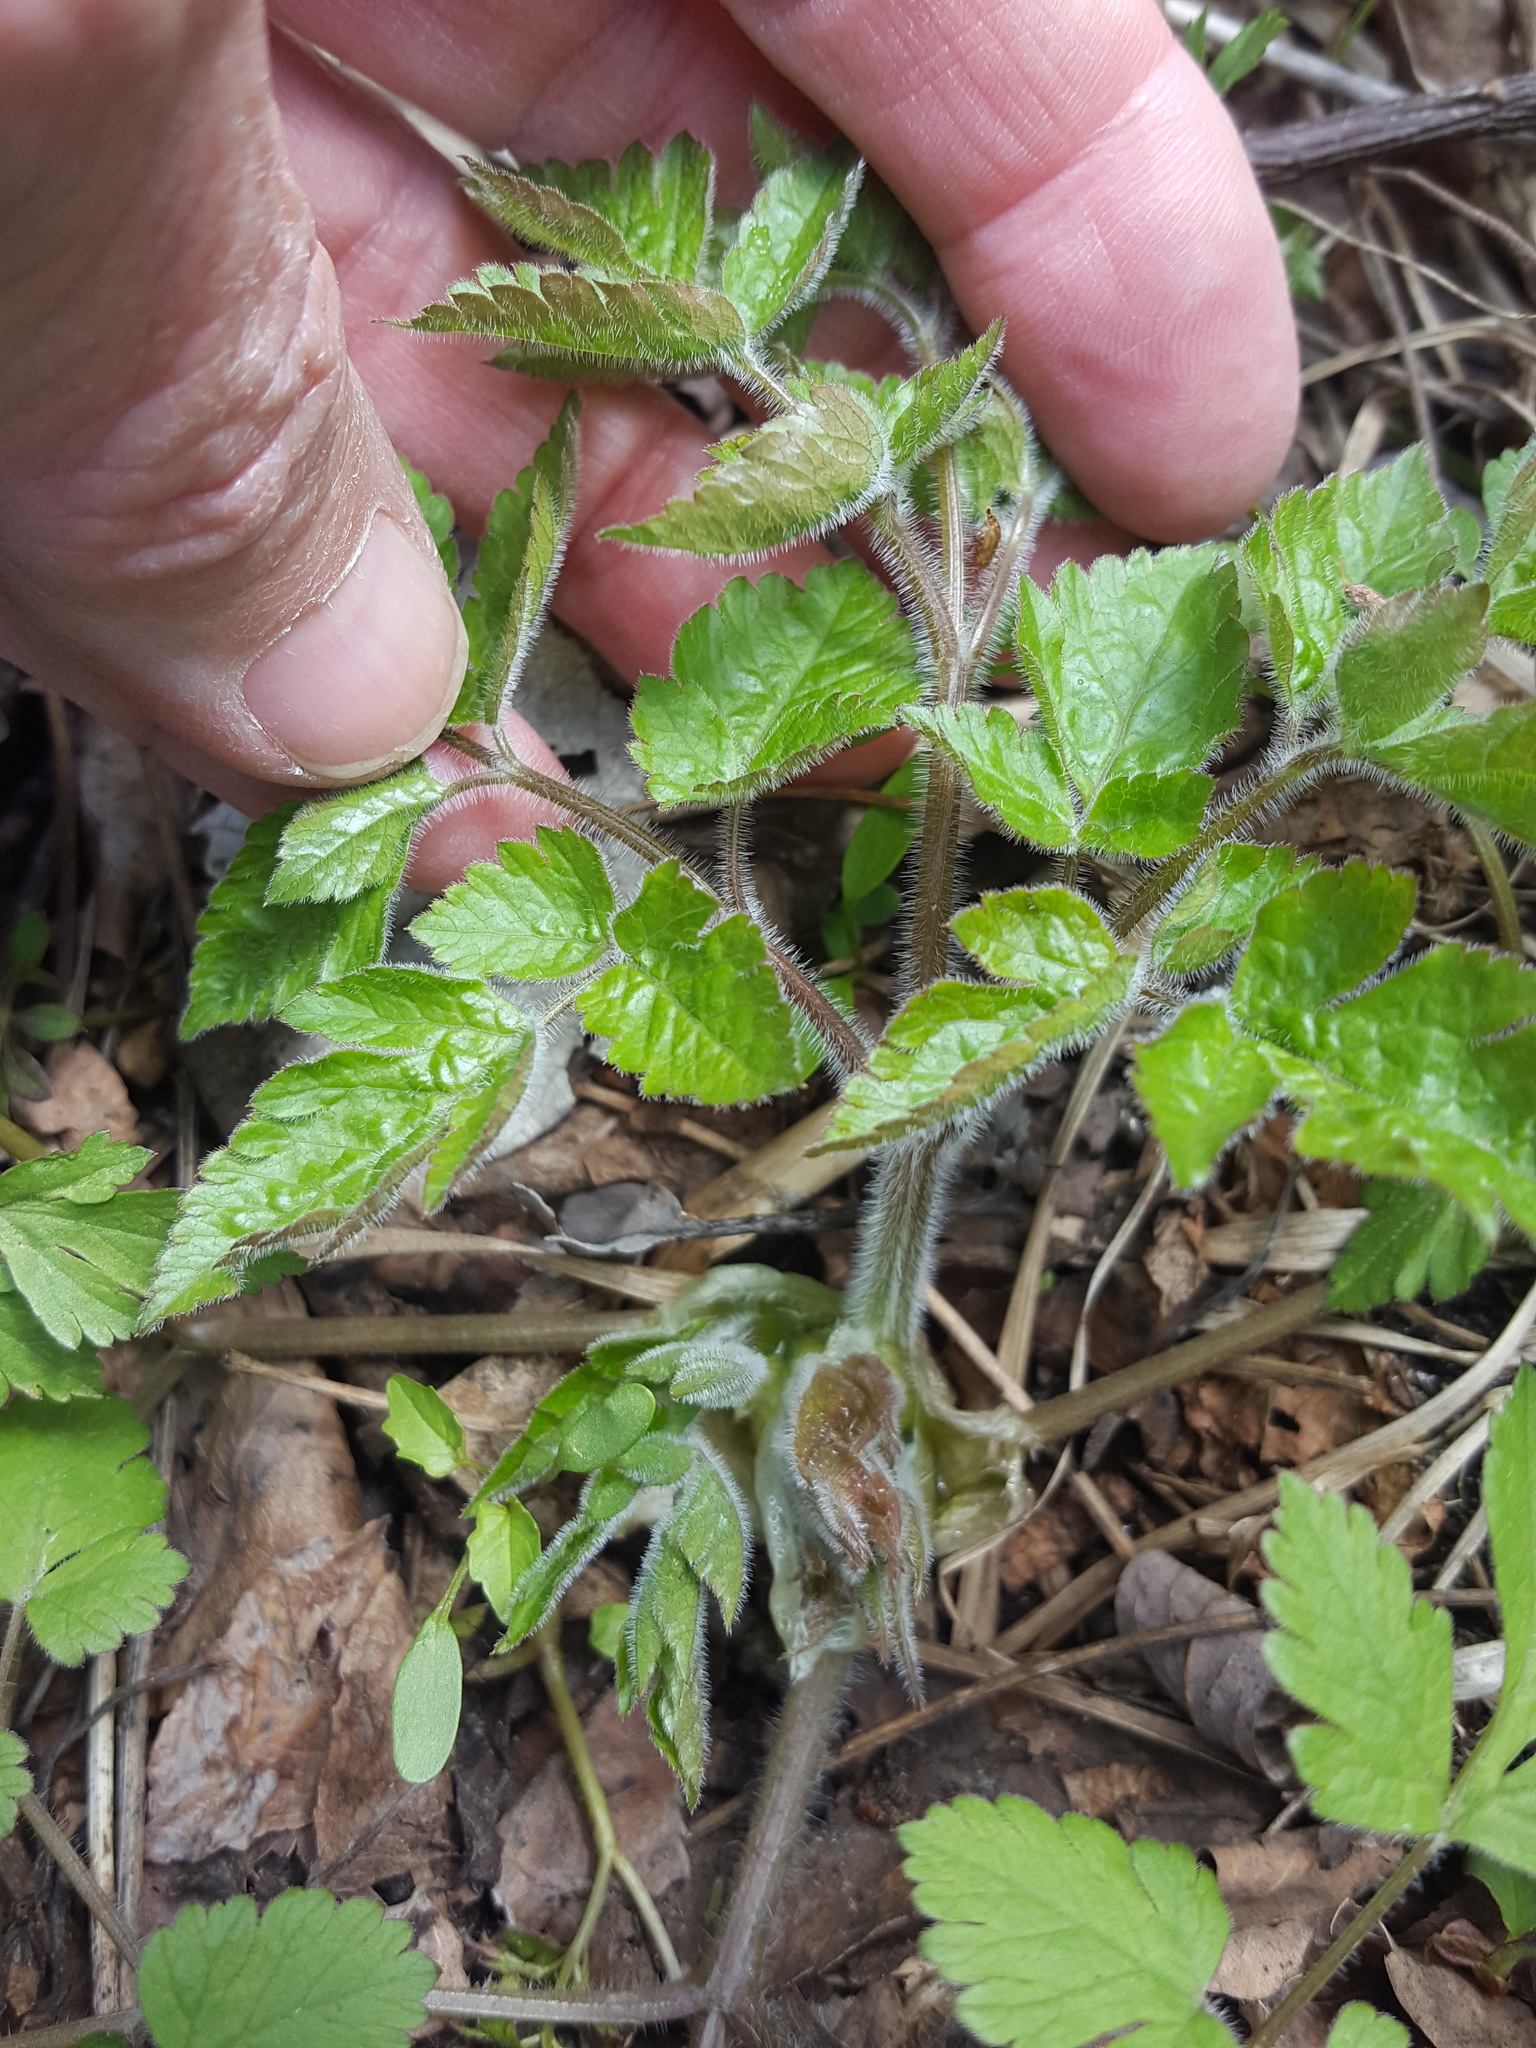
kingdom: Plantae
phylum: Tracheophyta
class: Magnoliopsida
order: Apiales
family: Apiaceae
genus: Osmorhiza
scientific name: Osmorhiza claytonii
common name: Hairy sweet cicely
